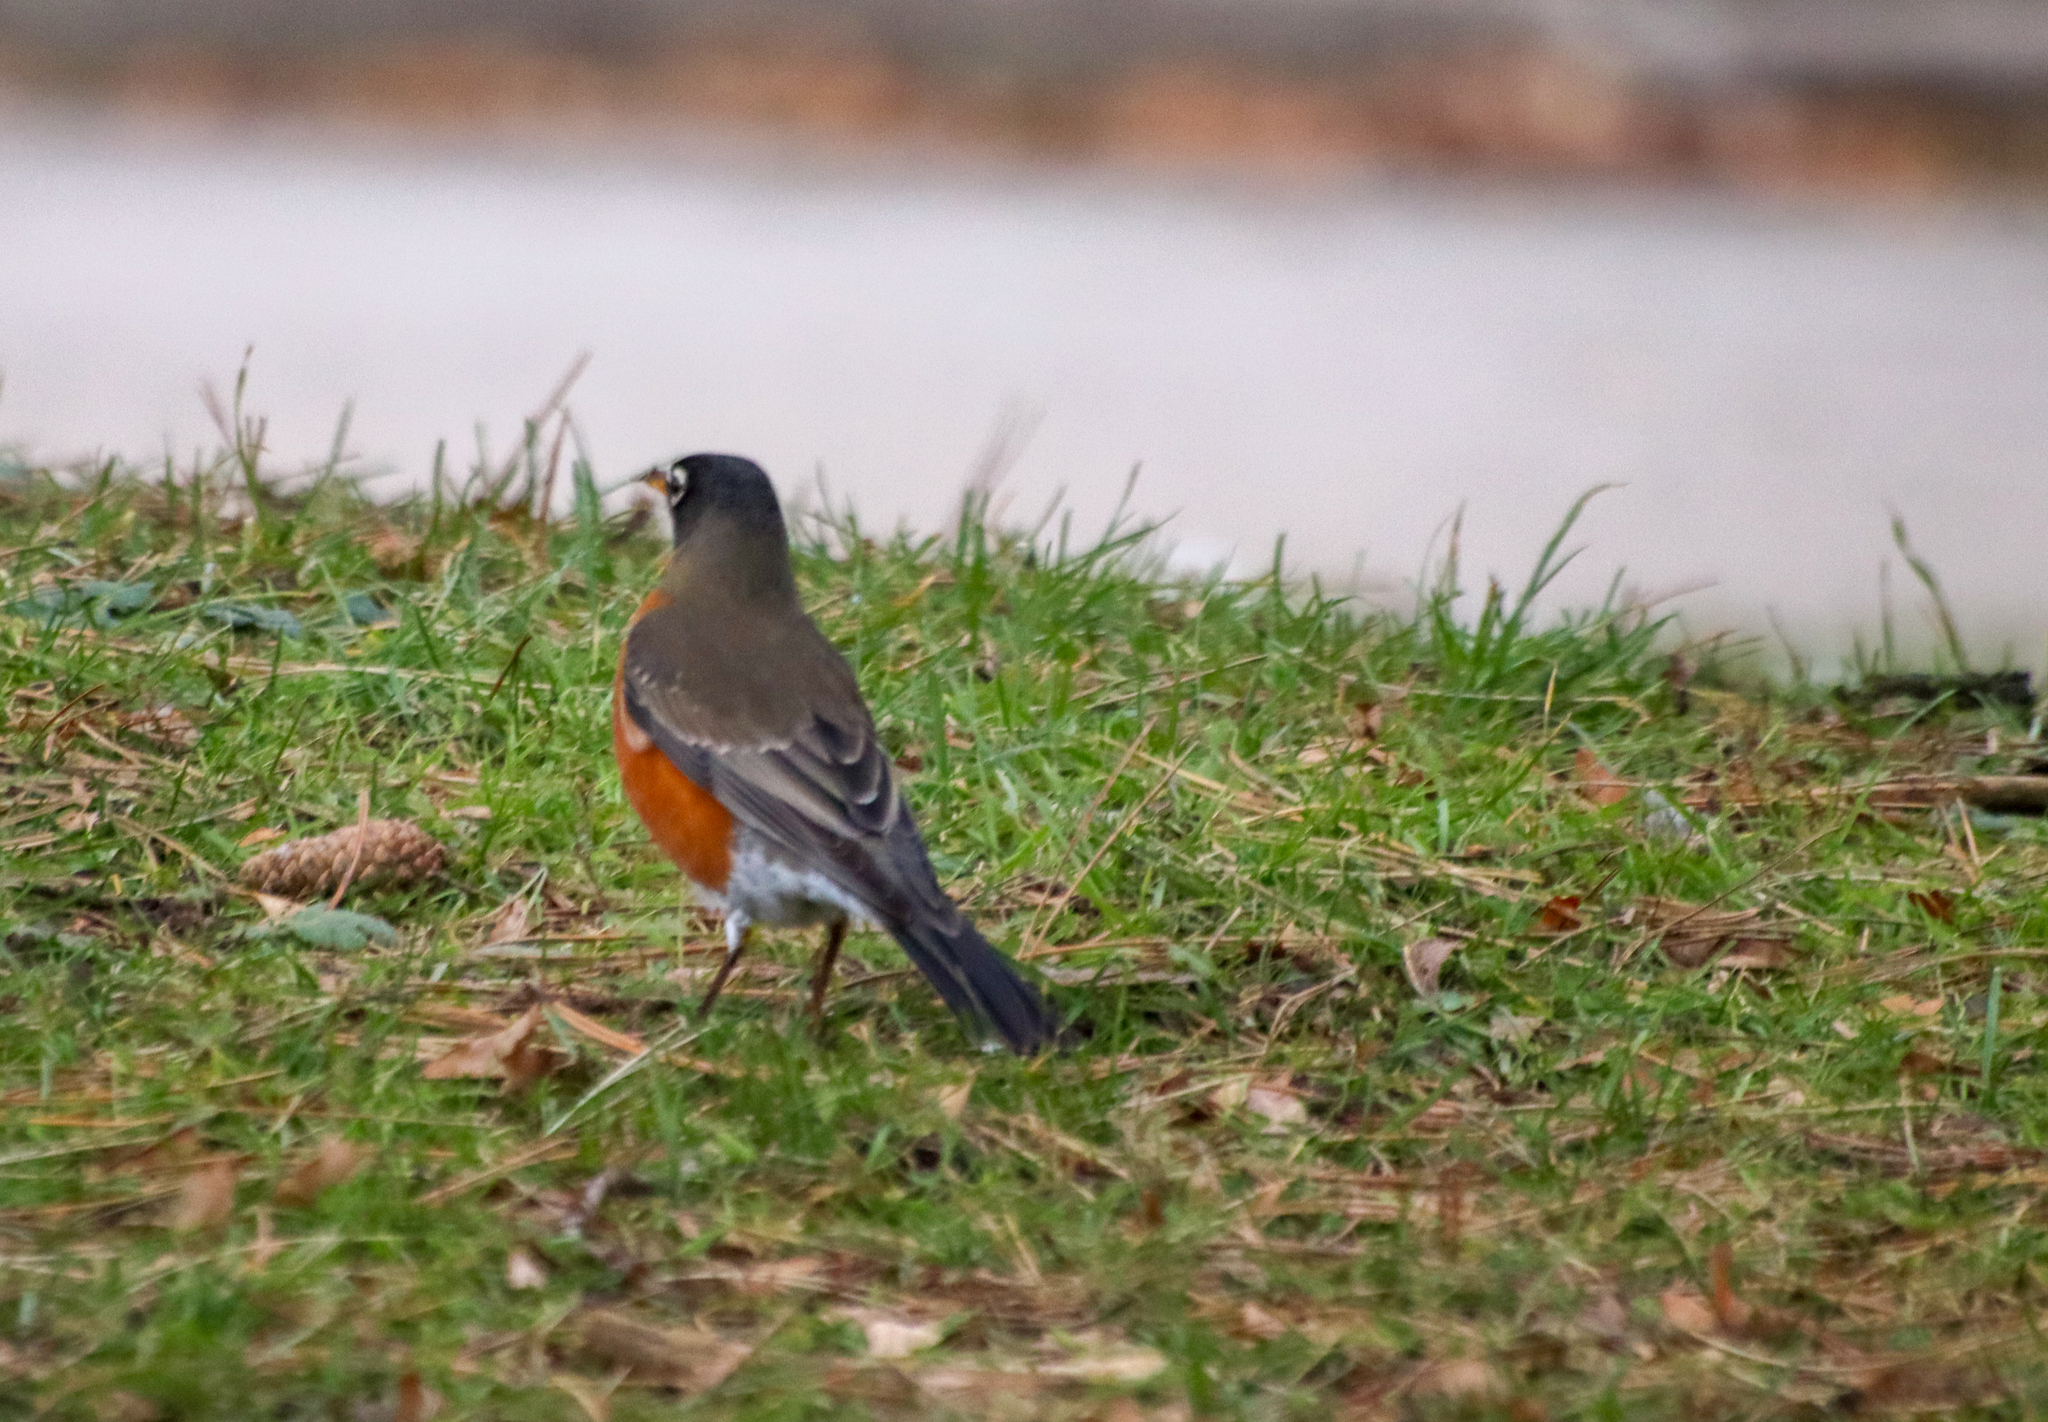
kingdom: Animalia
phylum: Chordata
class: Aves
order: Passeriformes
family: Turdidae
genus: Turdus
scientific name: Turdus migratorius
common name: American robin
